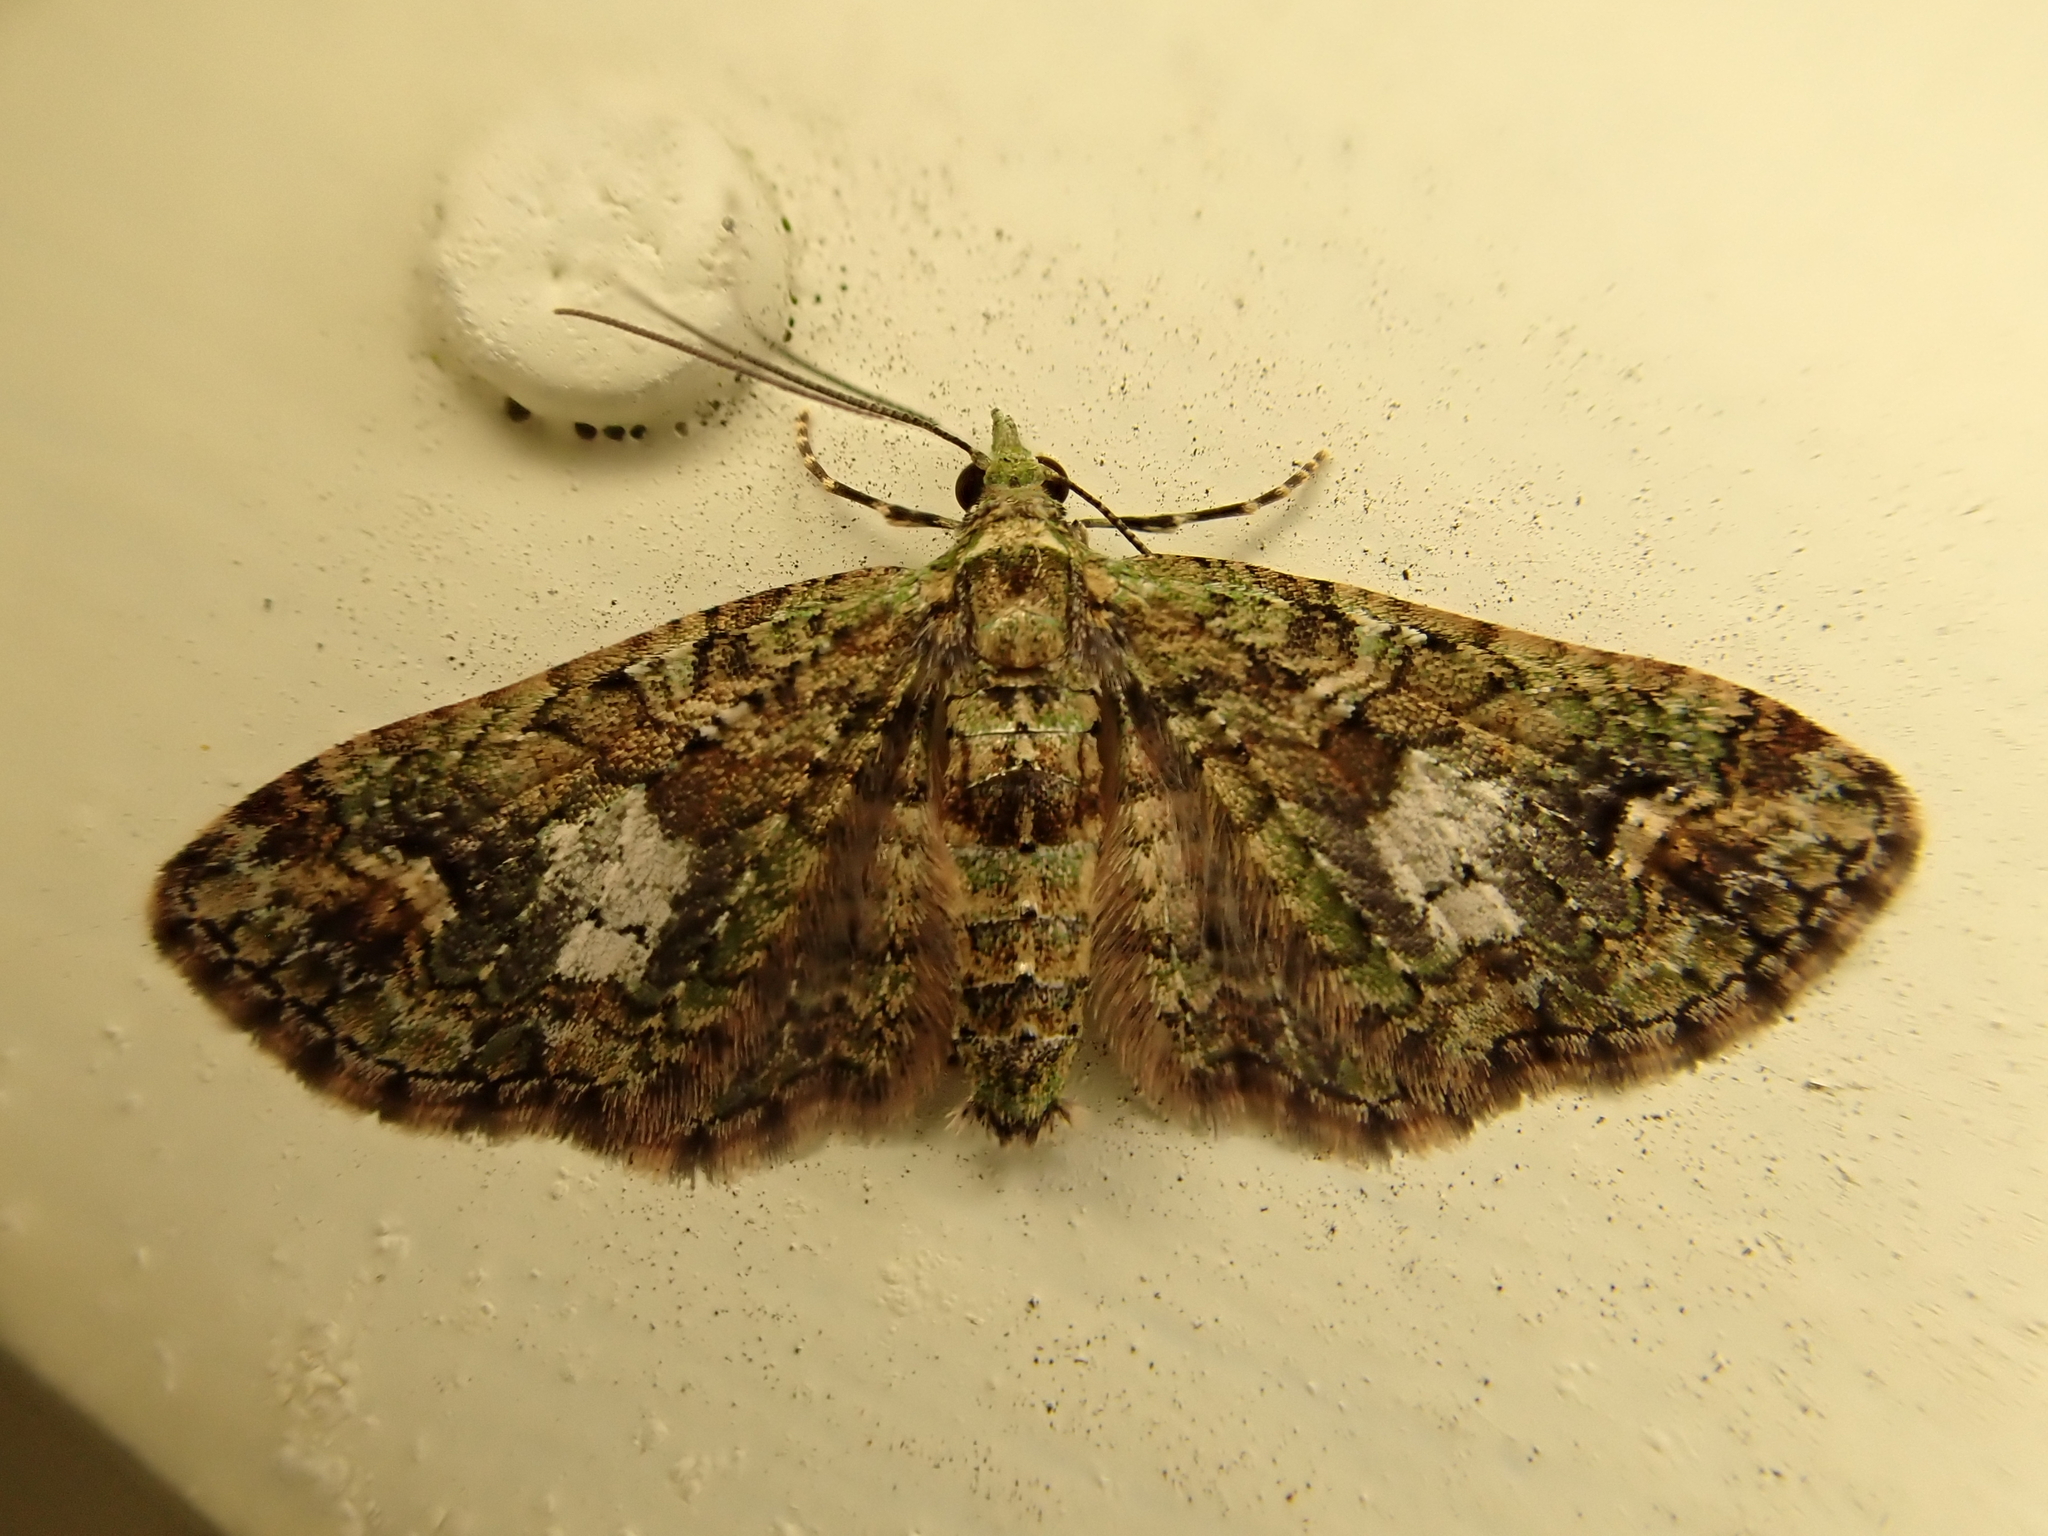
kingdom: Animalia
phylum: Arthropoda
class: Insecta
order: Lepidoptera
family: Geometridae
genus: Idaea
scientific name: Idaea mutanda
